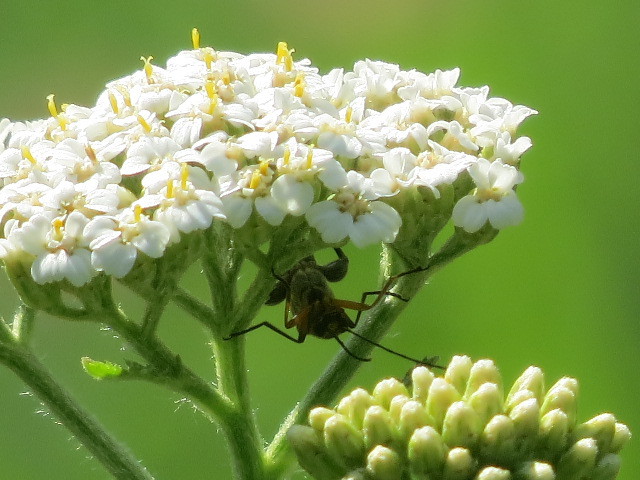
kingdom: Animalia
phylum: Arthropoda
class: Insecta
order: Coleoptera
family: Oedemeridae
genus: Oedemera
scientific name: Oedemera podagrariae
